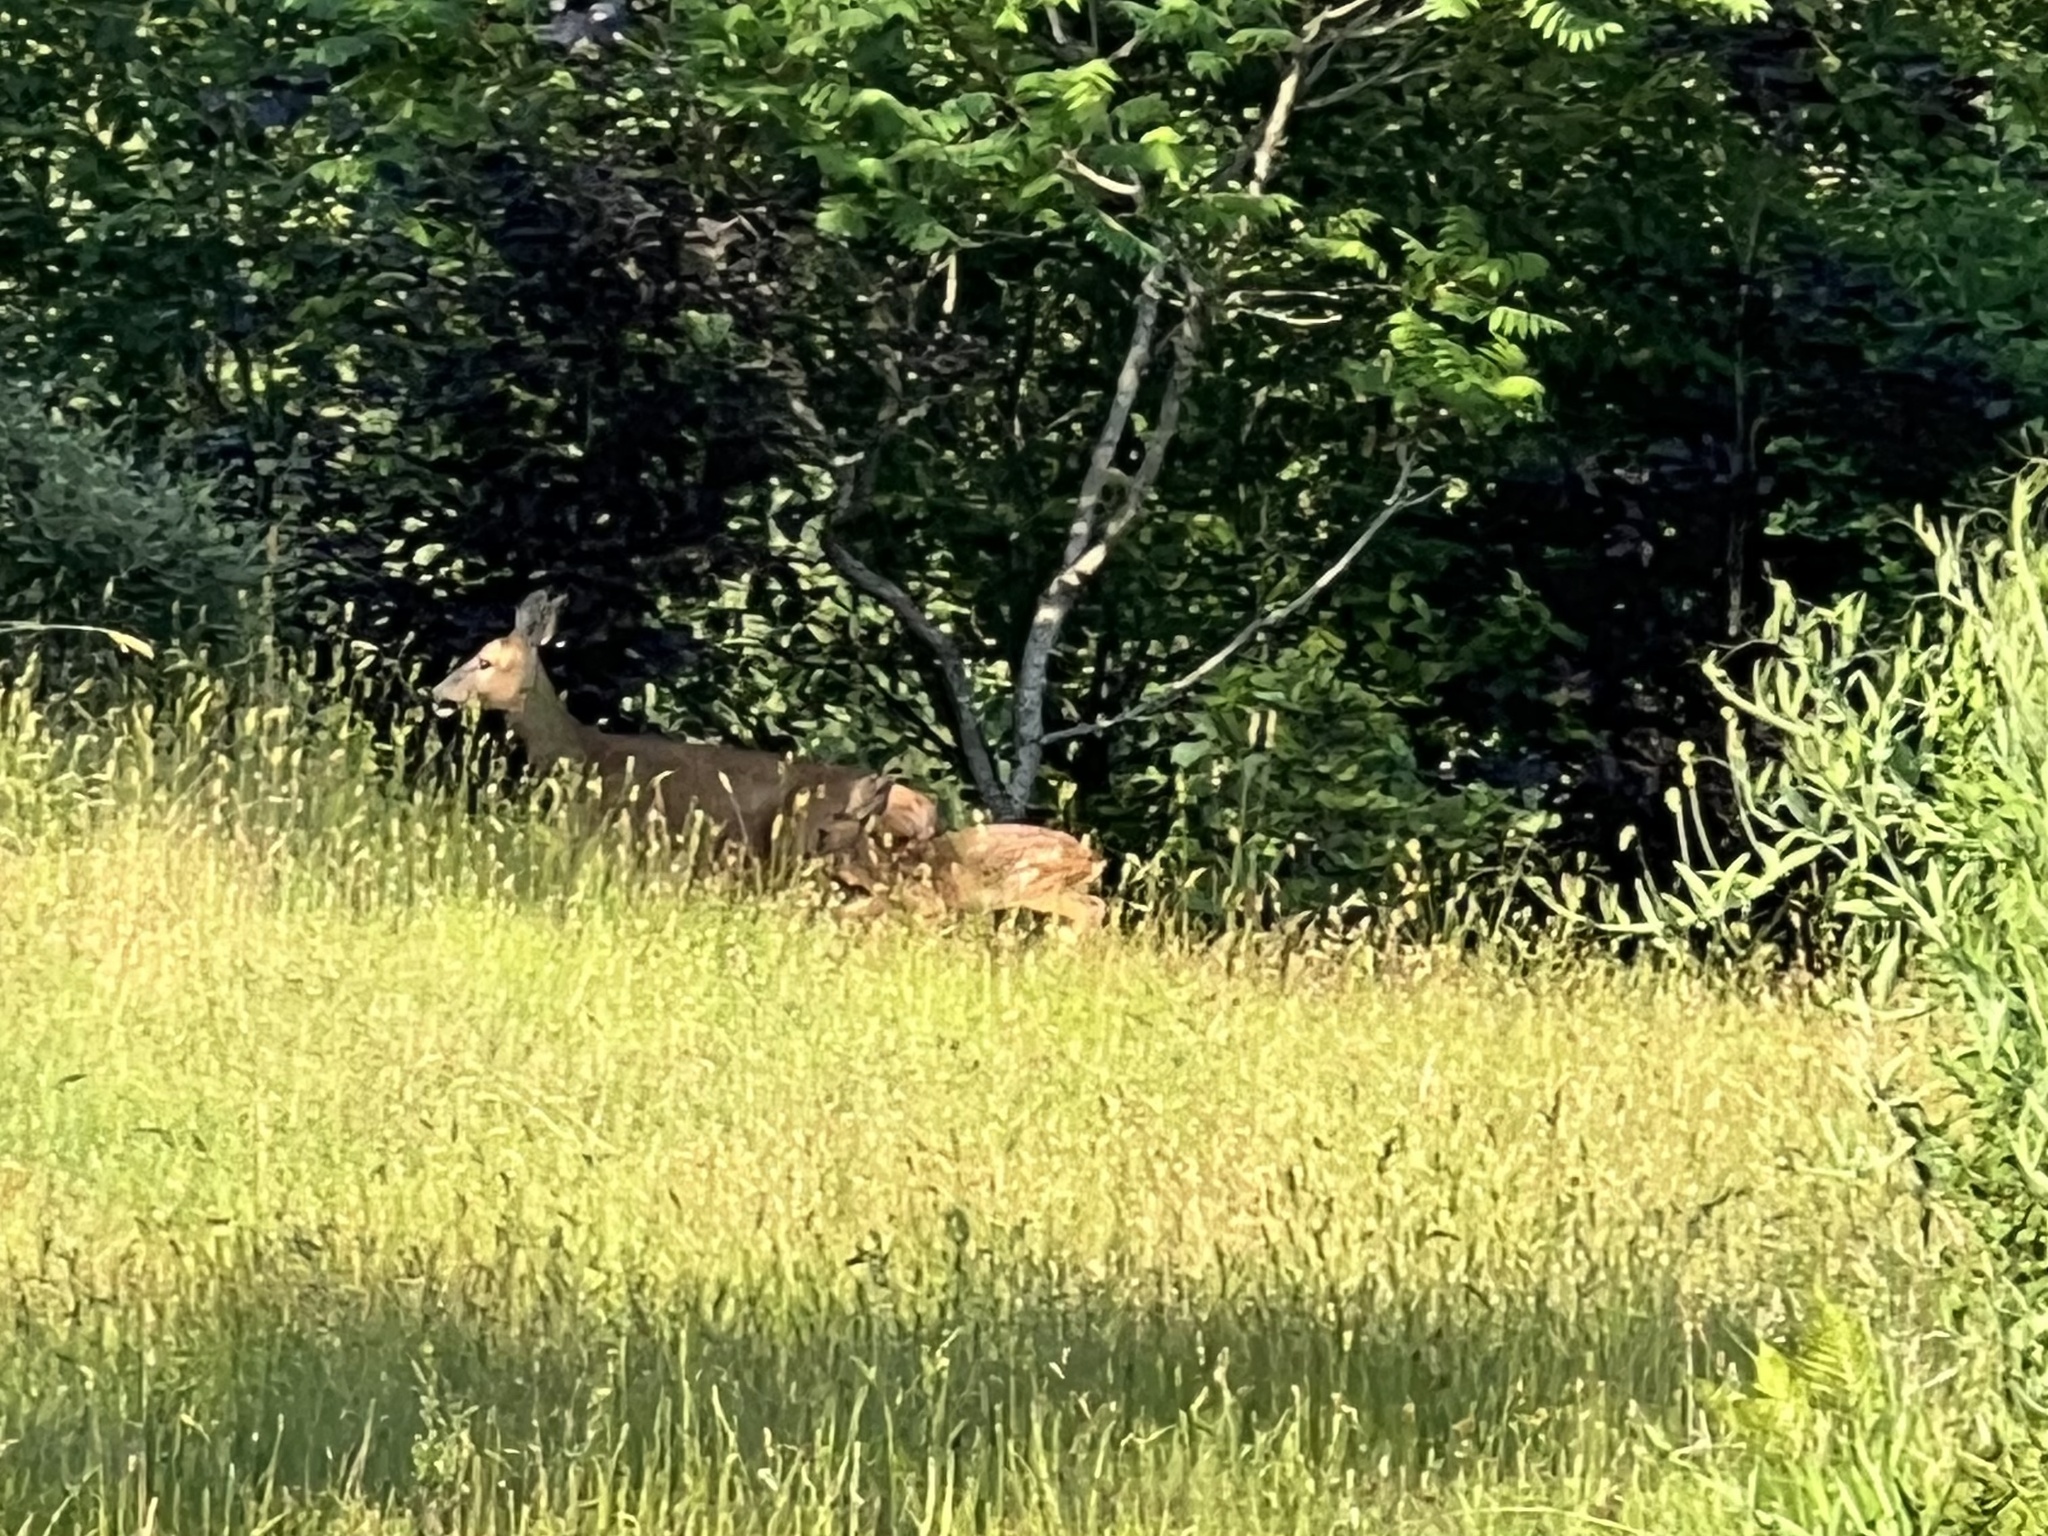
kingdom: Animalia
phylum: Chordata
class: Mammalia
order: Artiodactyla
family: Cervidae
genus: Capreolus
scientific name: Capreolus capreolus
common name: Western roe deer
